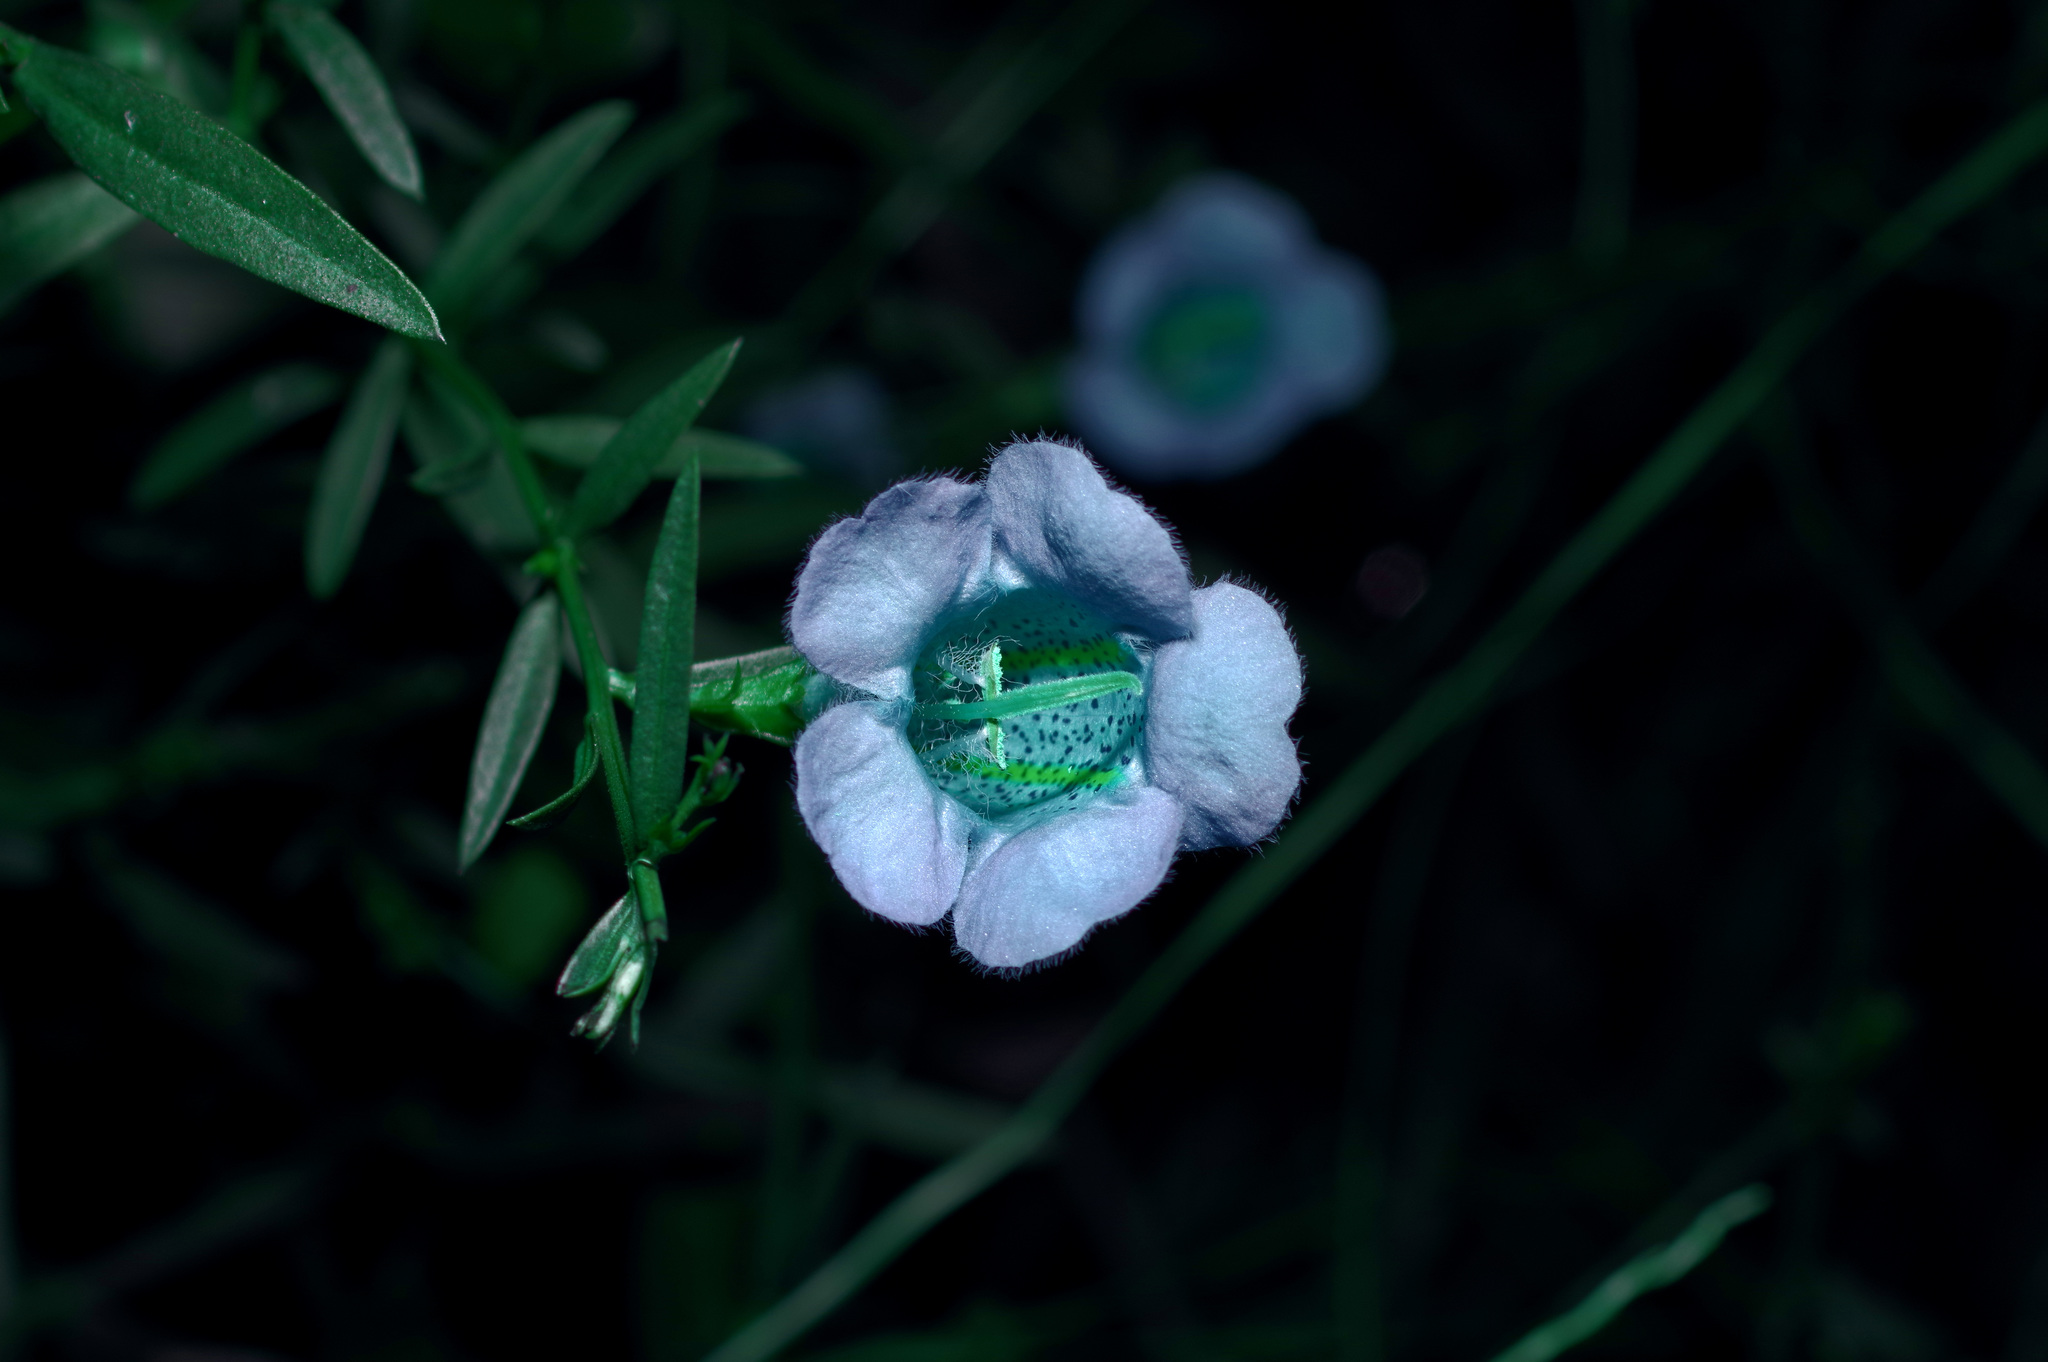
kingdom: Plantae
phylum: Tracheophyta
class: Magnoliopsida
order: Lamiales
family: Orobanchaceae
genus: Agalinis
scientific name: Agalinis heterophylla
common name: Prairie agalinis
